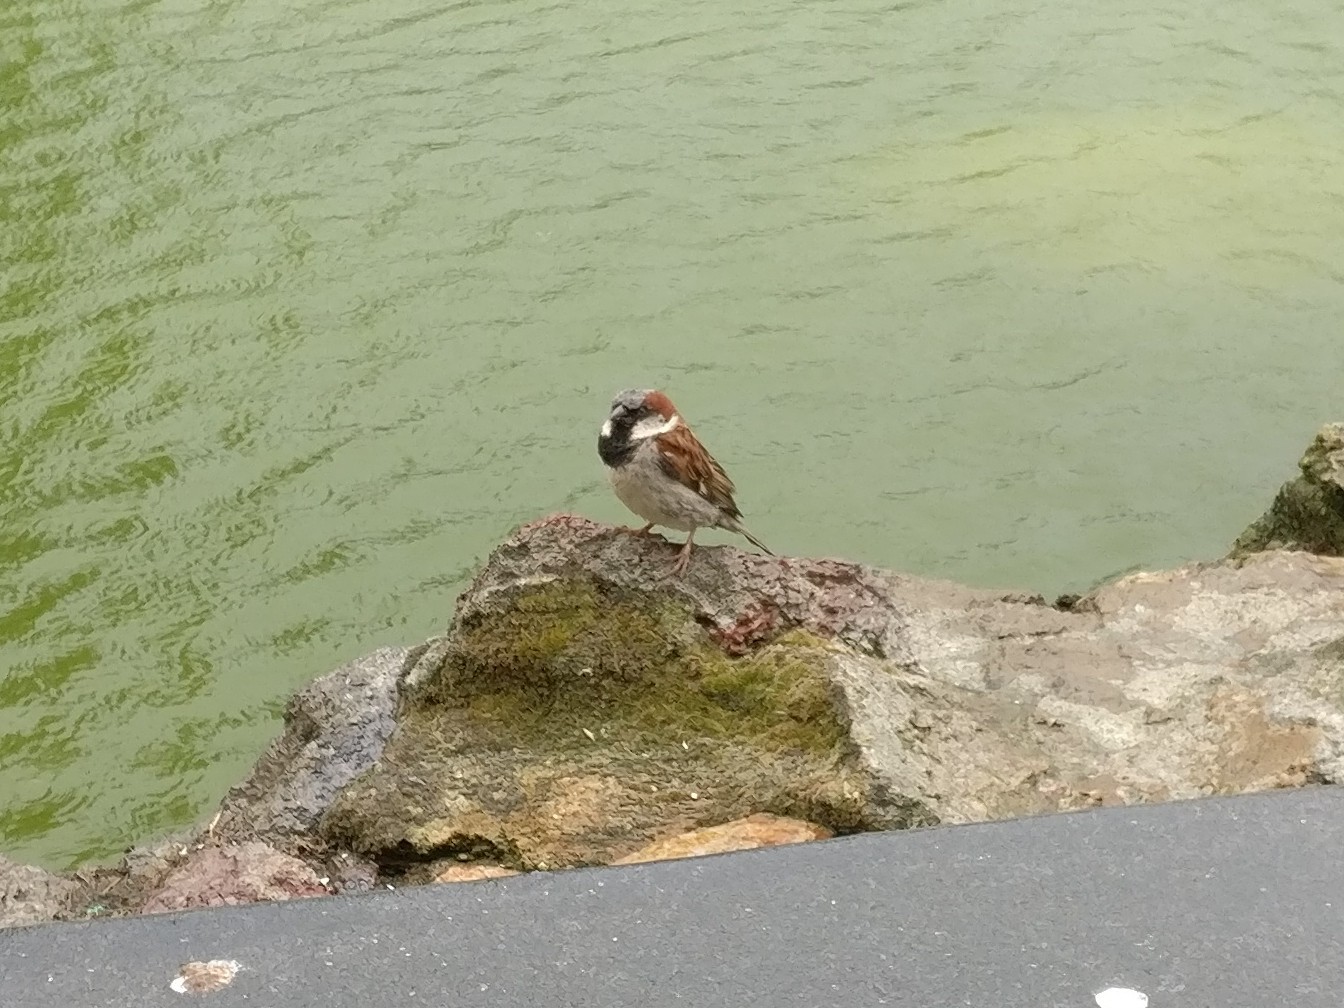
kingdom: Animalia
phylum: Chordata
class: Aves
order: Passeriformes
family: Passeridae
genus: Passer
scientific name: Passer domesticus
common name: House sparrow
